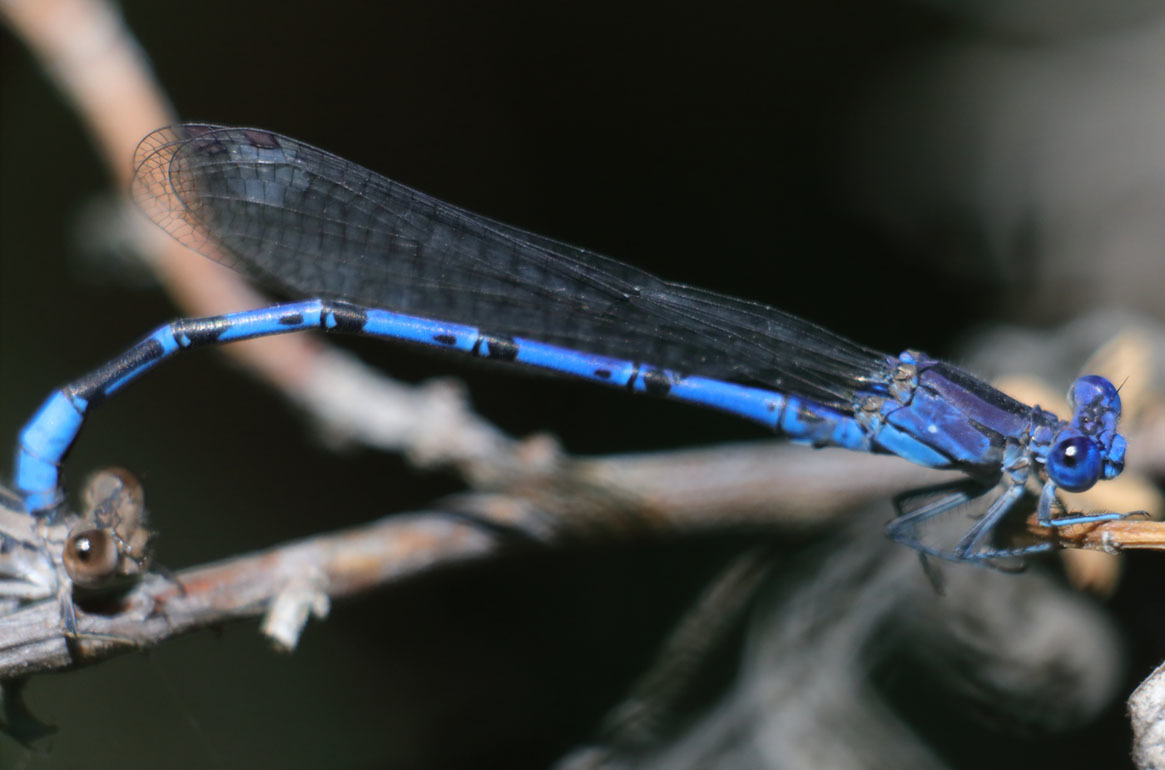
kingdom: Animalia
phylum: Arthropoda
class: Insecta
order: Odonata
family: Coenagrionidae
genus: Argia
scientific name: Argia vivida
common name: Vivid dancer
